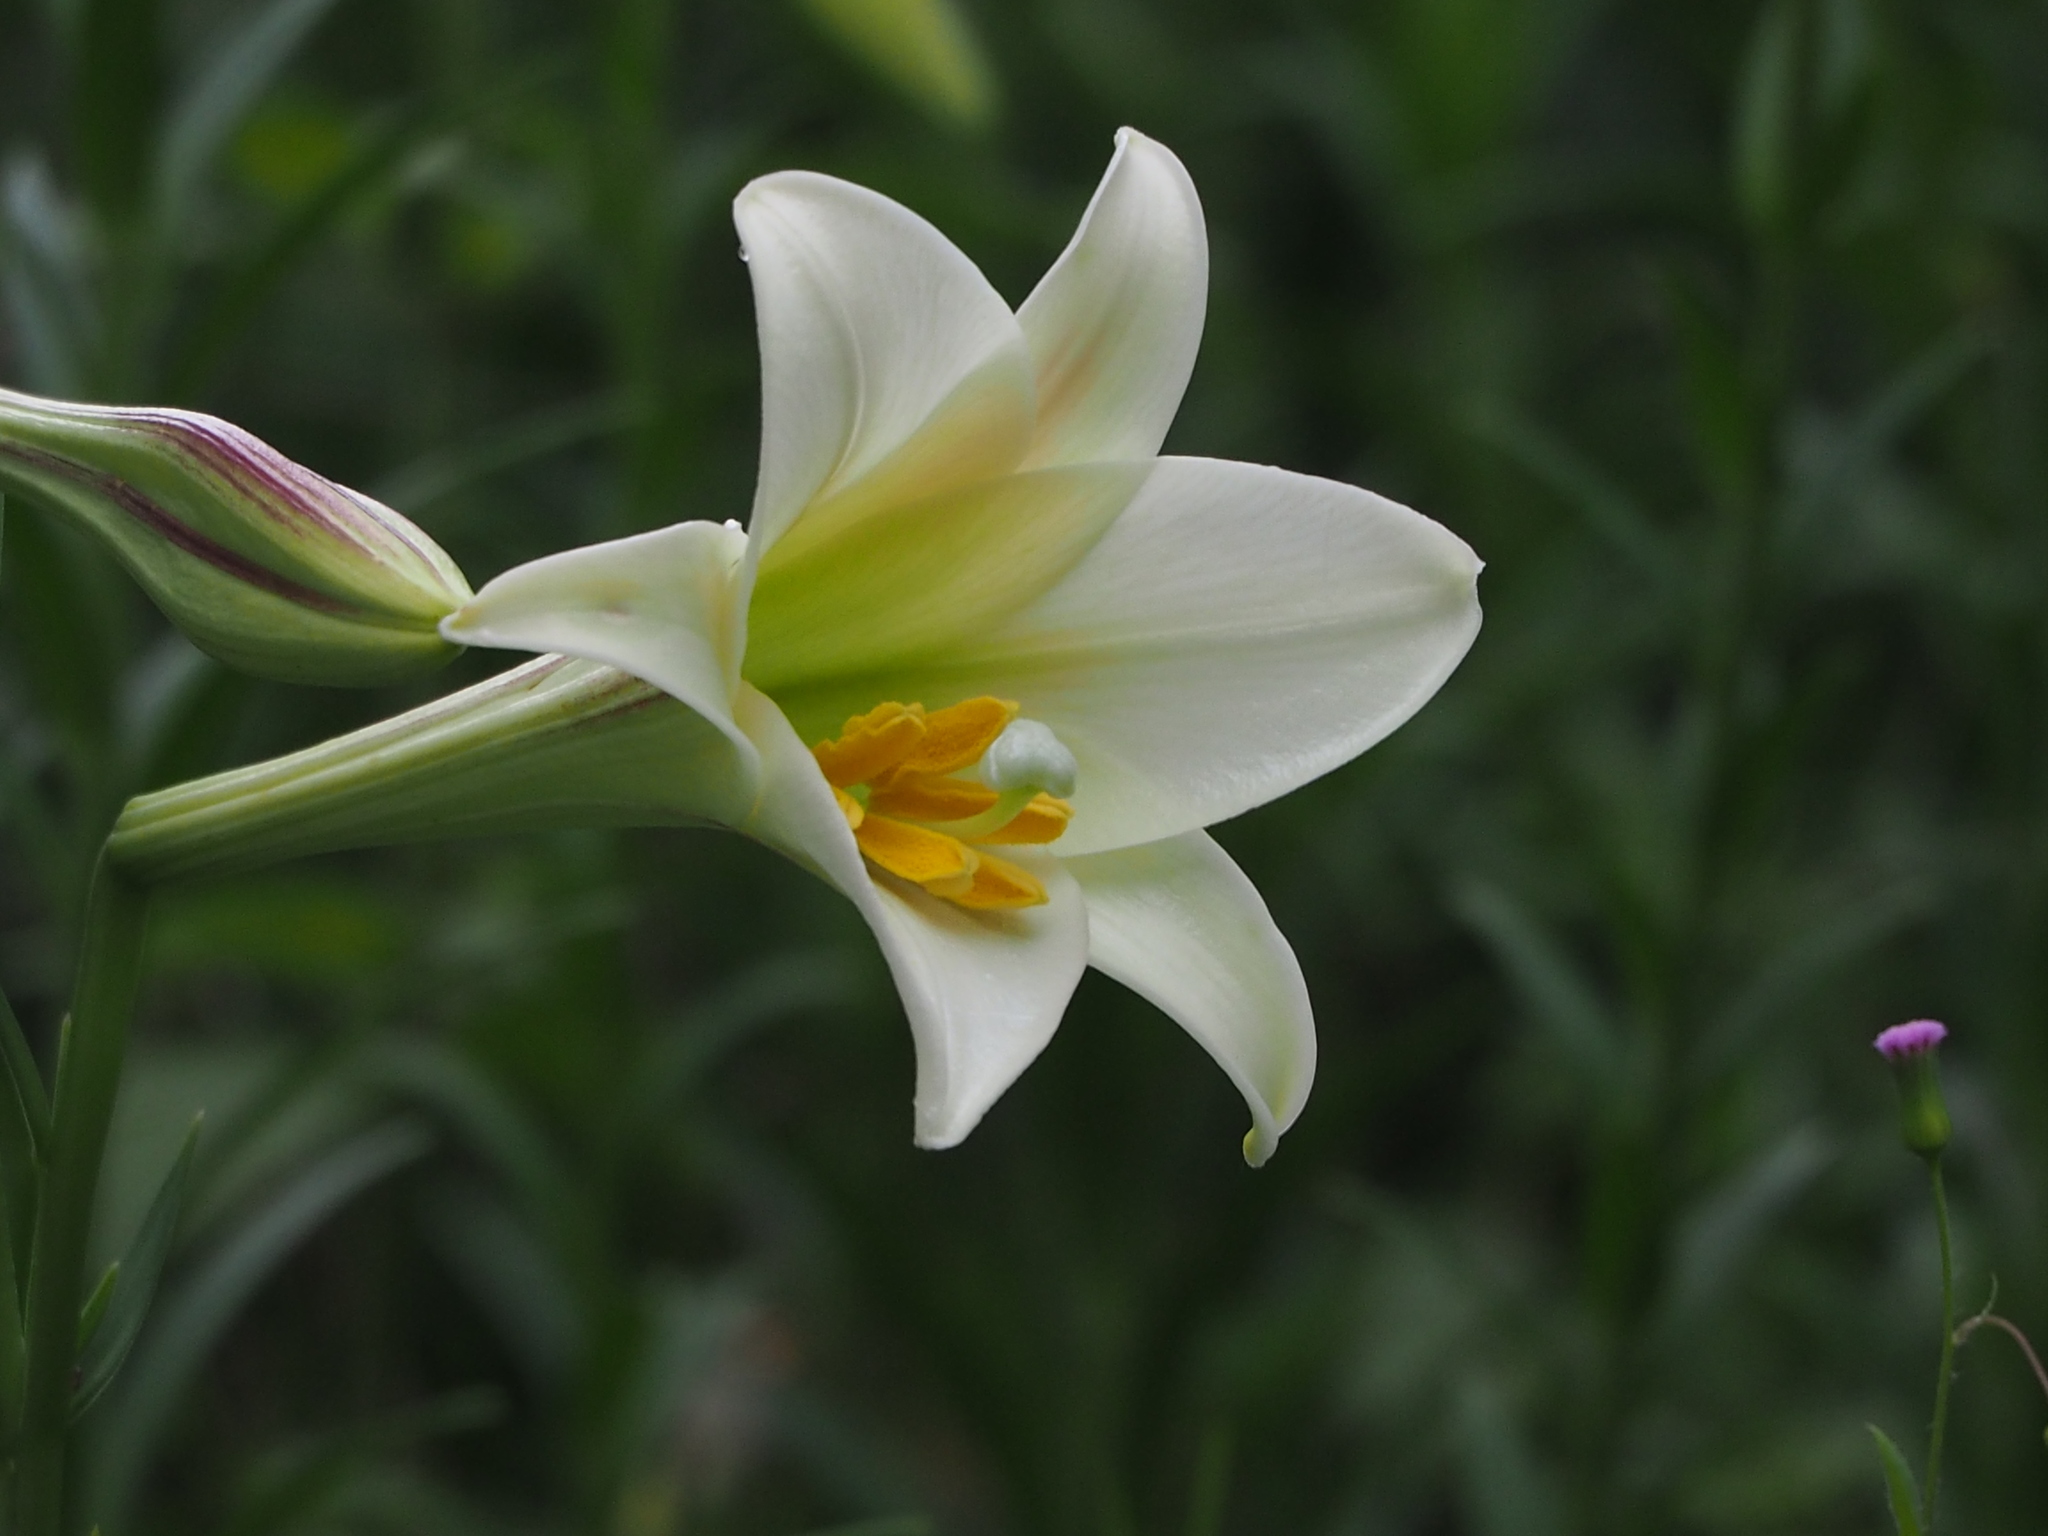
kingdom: Plantae
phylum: Tracheophyta
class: Liliopsida
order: Liliales
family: Liliaceae
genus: Lilium
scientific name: Lilium longiflorum
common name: Easter lily
